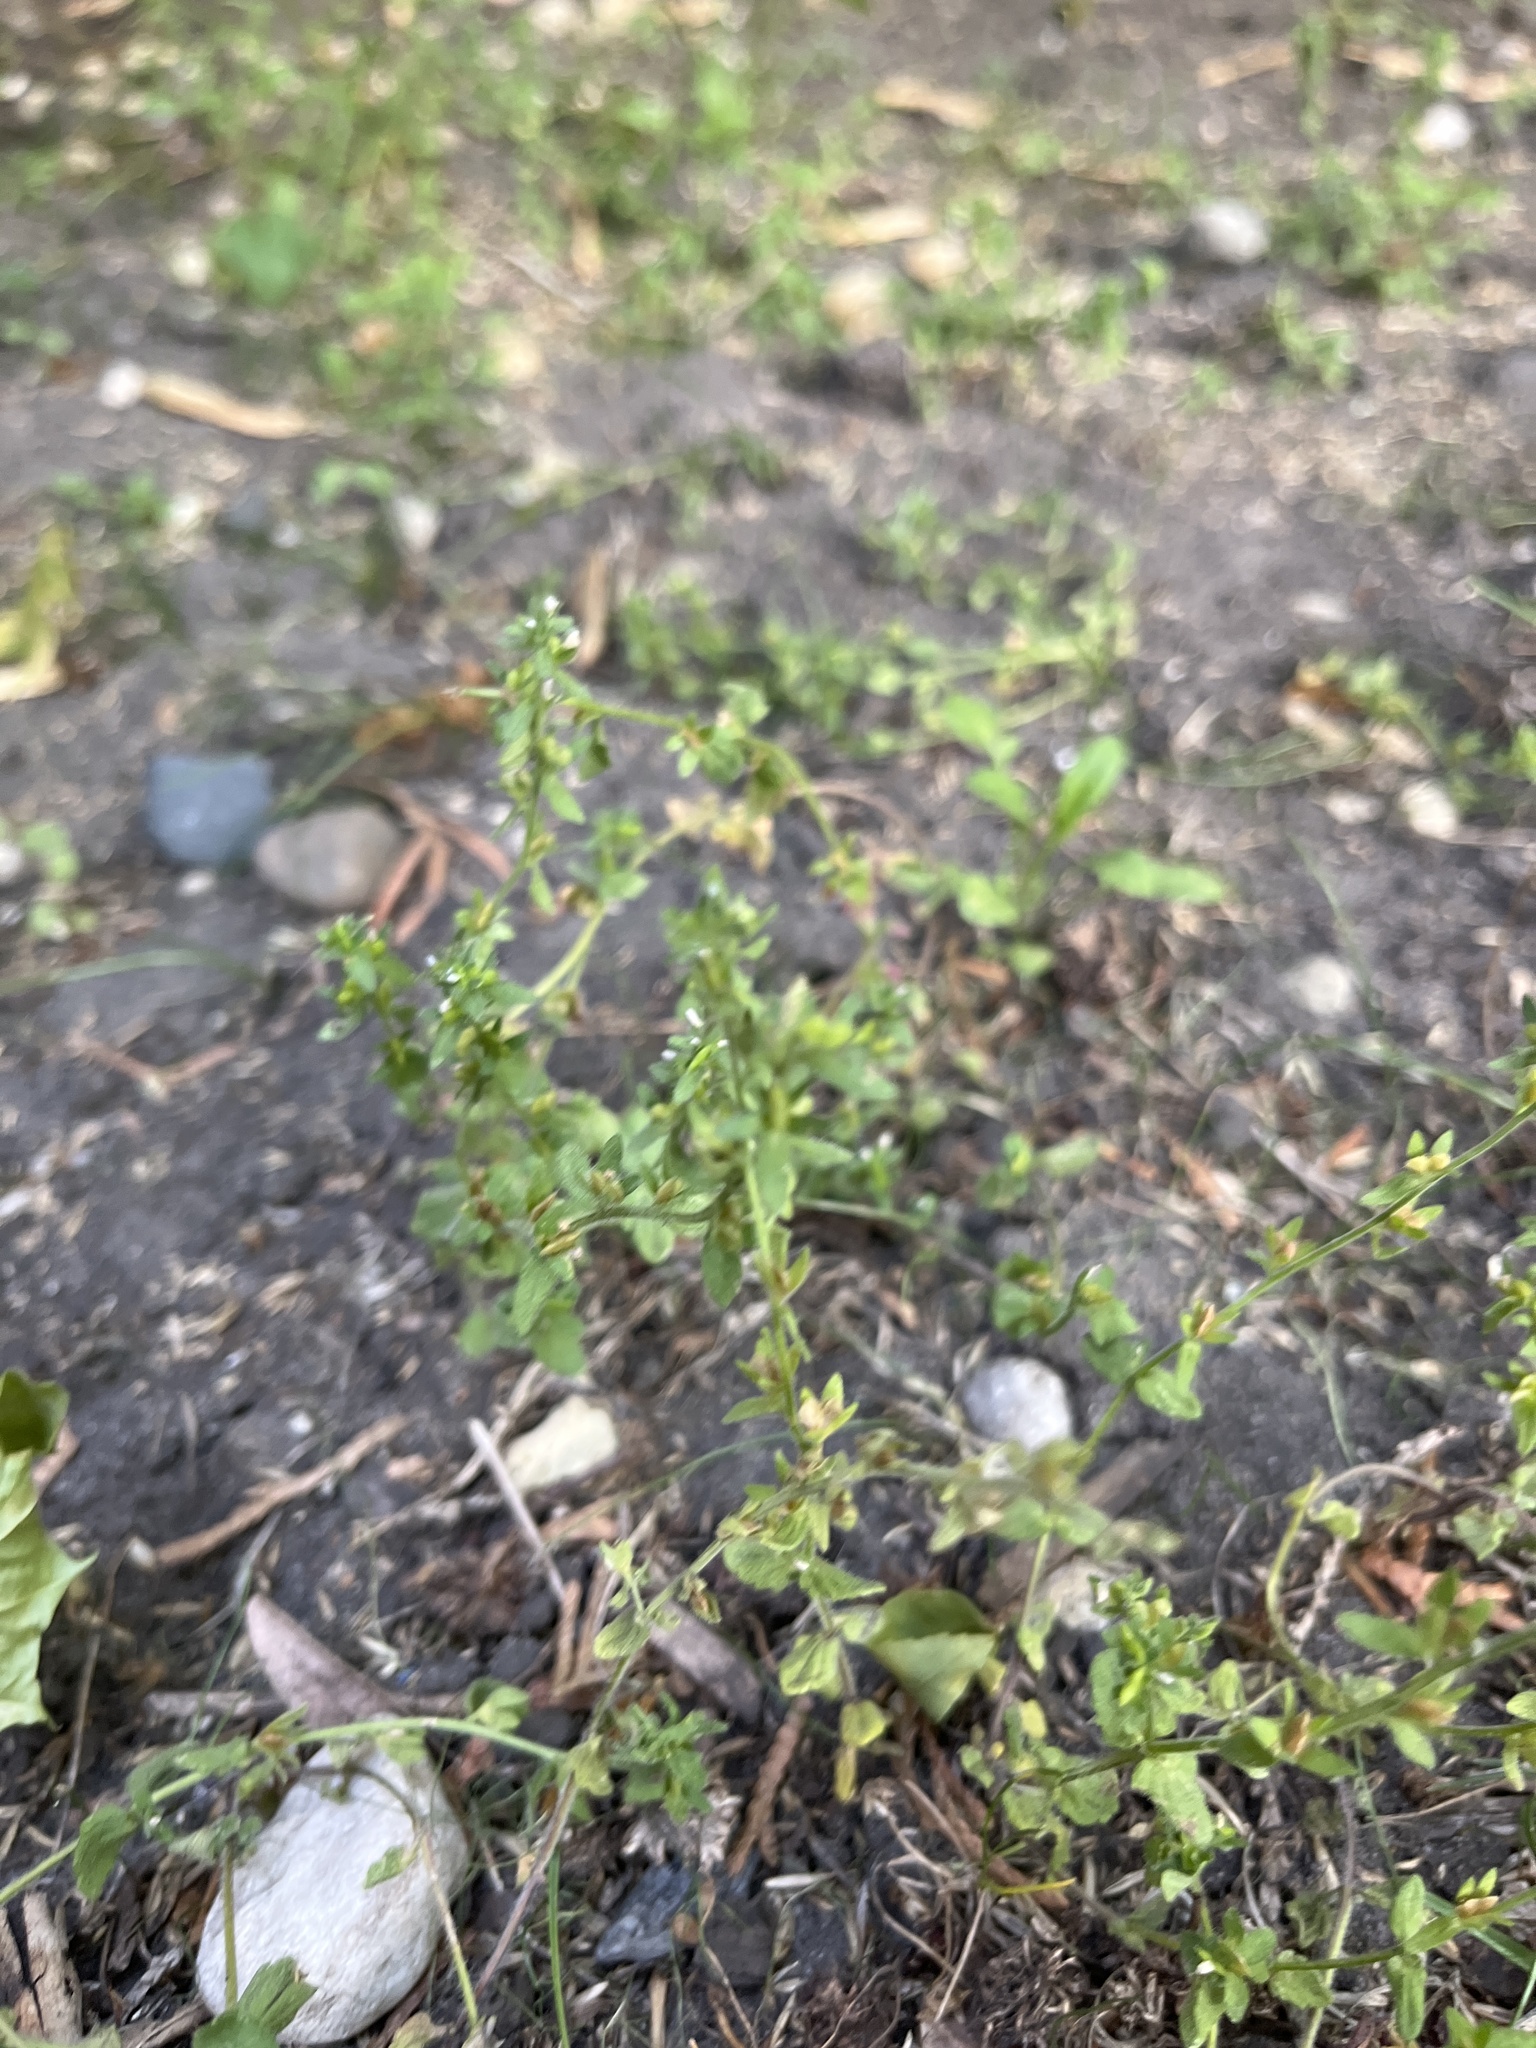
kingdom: Plantae
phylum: Tracheophyta
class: Magnoliopsida
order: Lamiales
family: Plantaginaceae
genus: Veronica
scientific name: Veronica arvensis
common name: Corn speedwell
